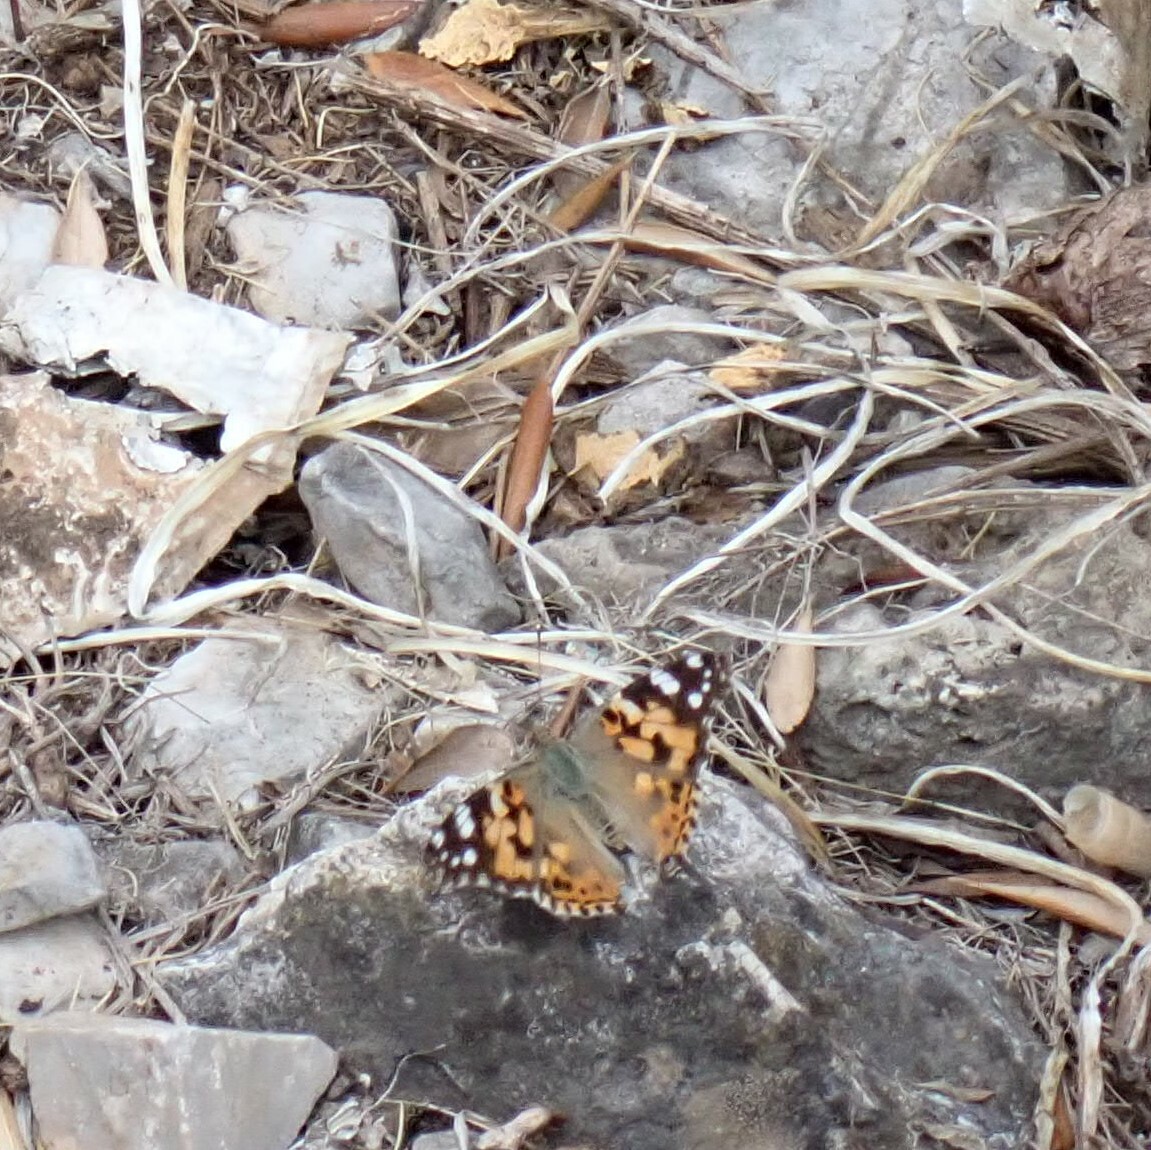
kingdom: Animalia
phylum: Arthropoda
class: Insecta
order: Lepidoptera
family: Nymphalidae
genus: Vanessa
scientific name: Vanessa cardui
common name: Painted lady
